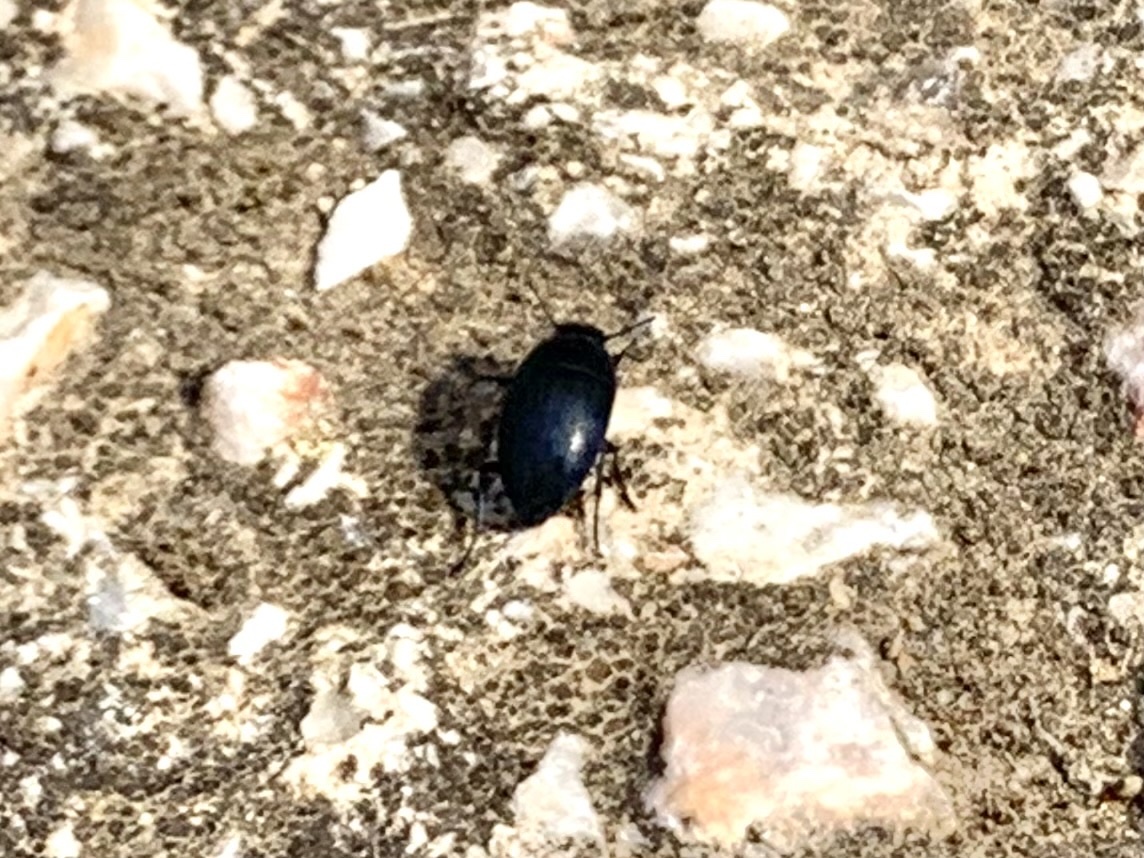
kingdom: Animalia
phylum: Arthropoda
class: Insecta
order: Coleoptera
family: Tenebrionidae
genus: Zophosis
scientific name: Zophosis punctata
